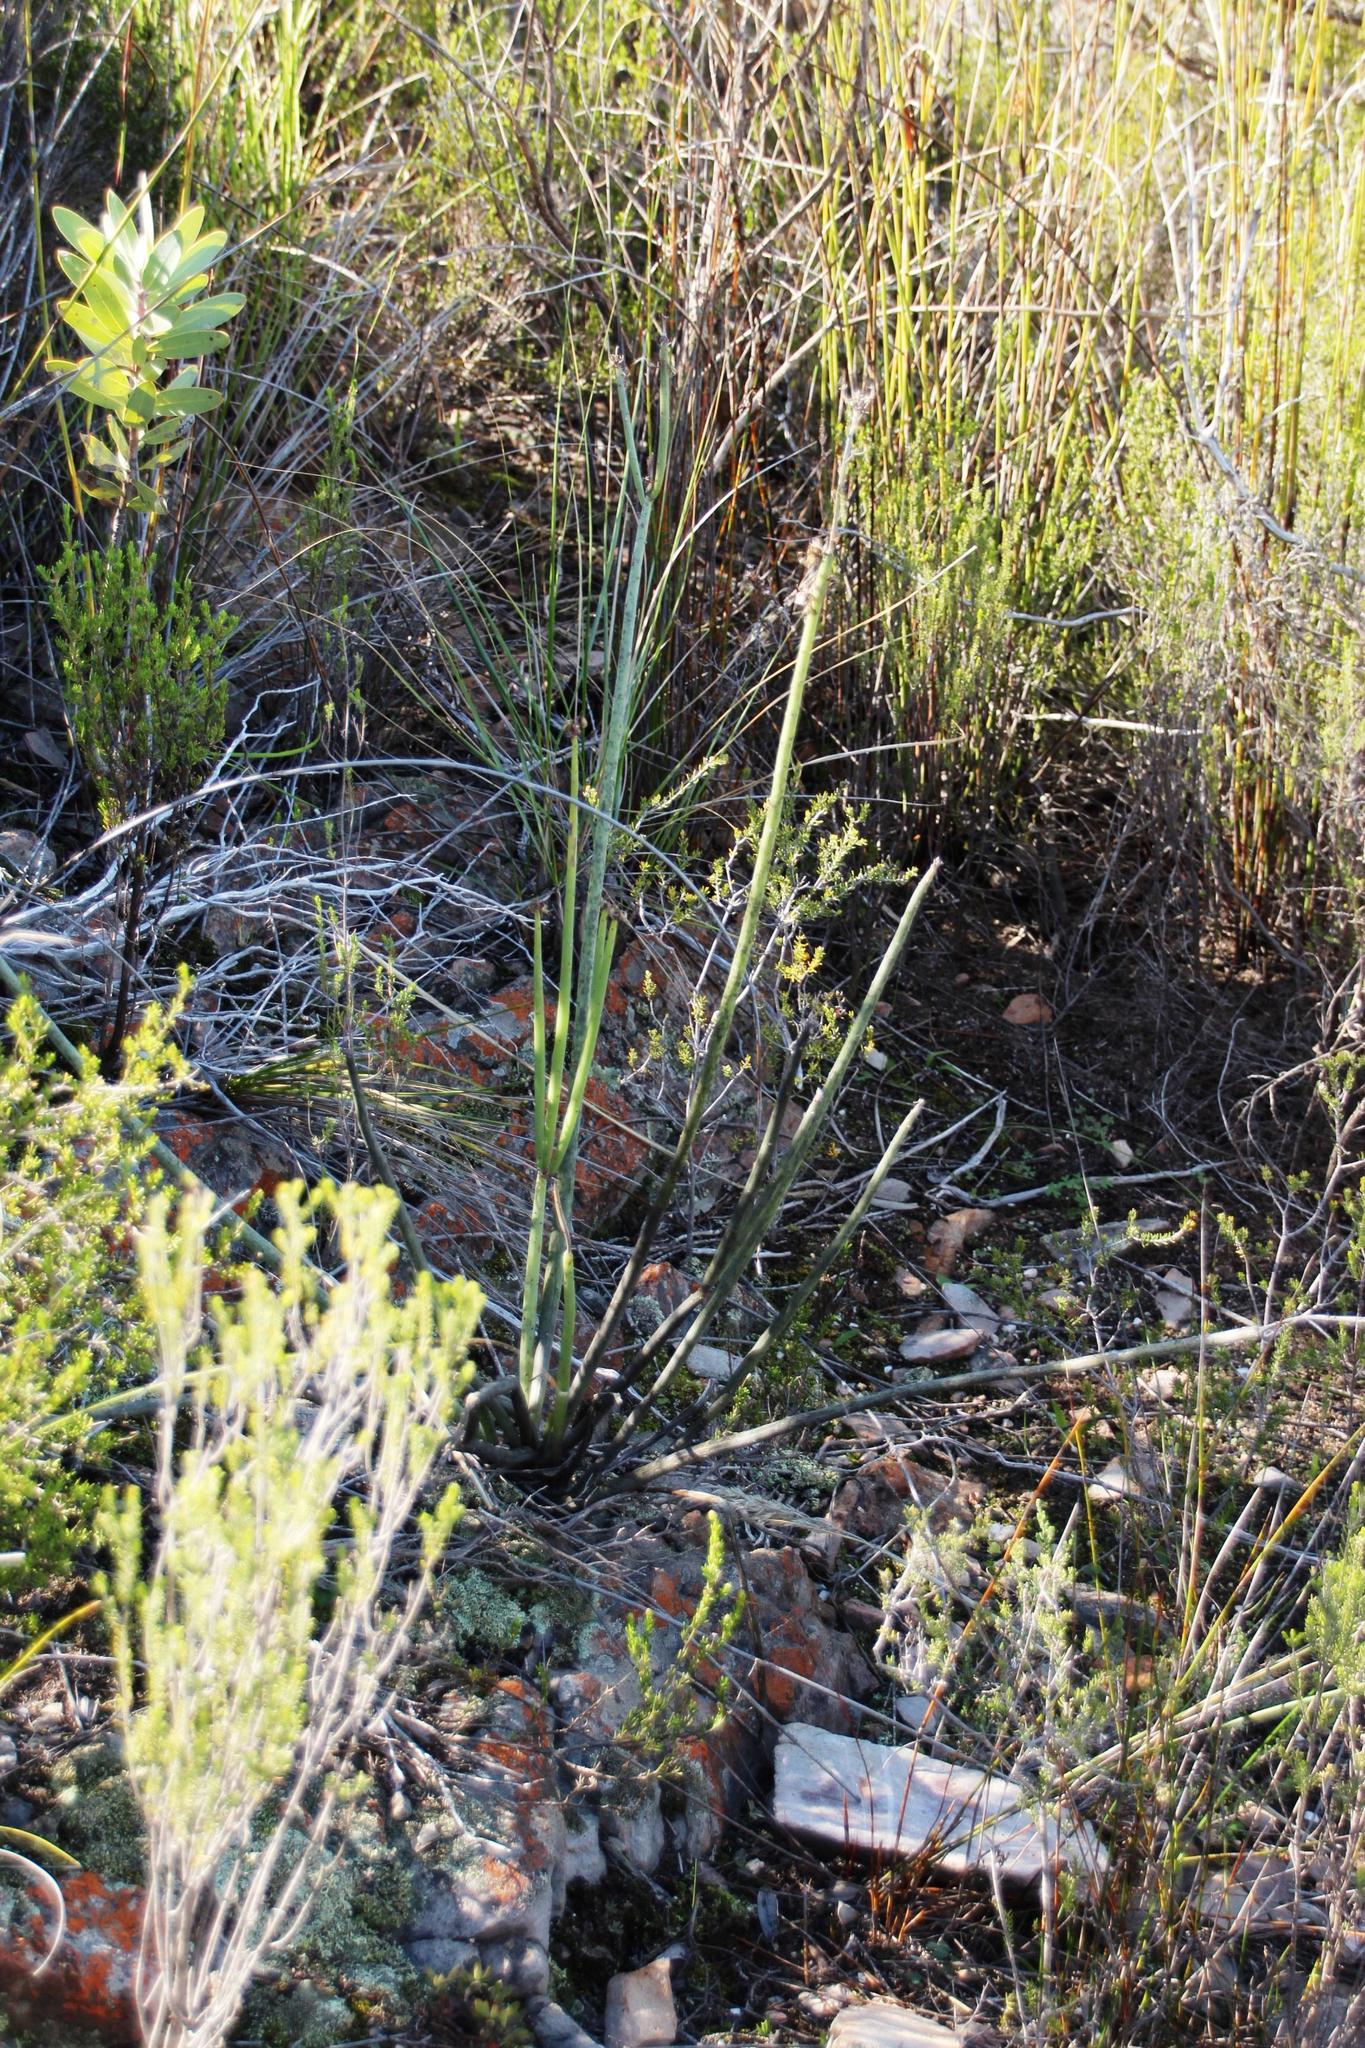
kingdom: Plantae
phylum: Tracheophyta
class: Magnoliopsida
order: Asterales
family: Asteraceae
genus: Senecio
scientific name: Senecio junceus
